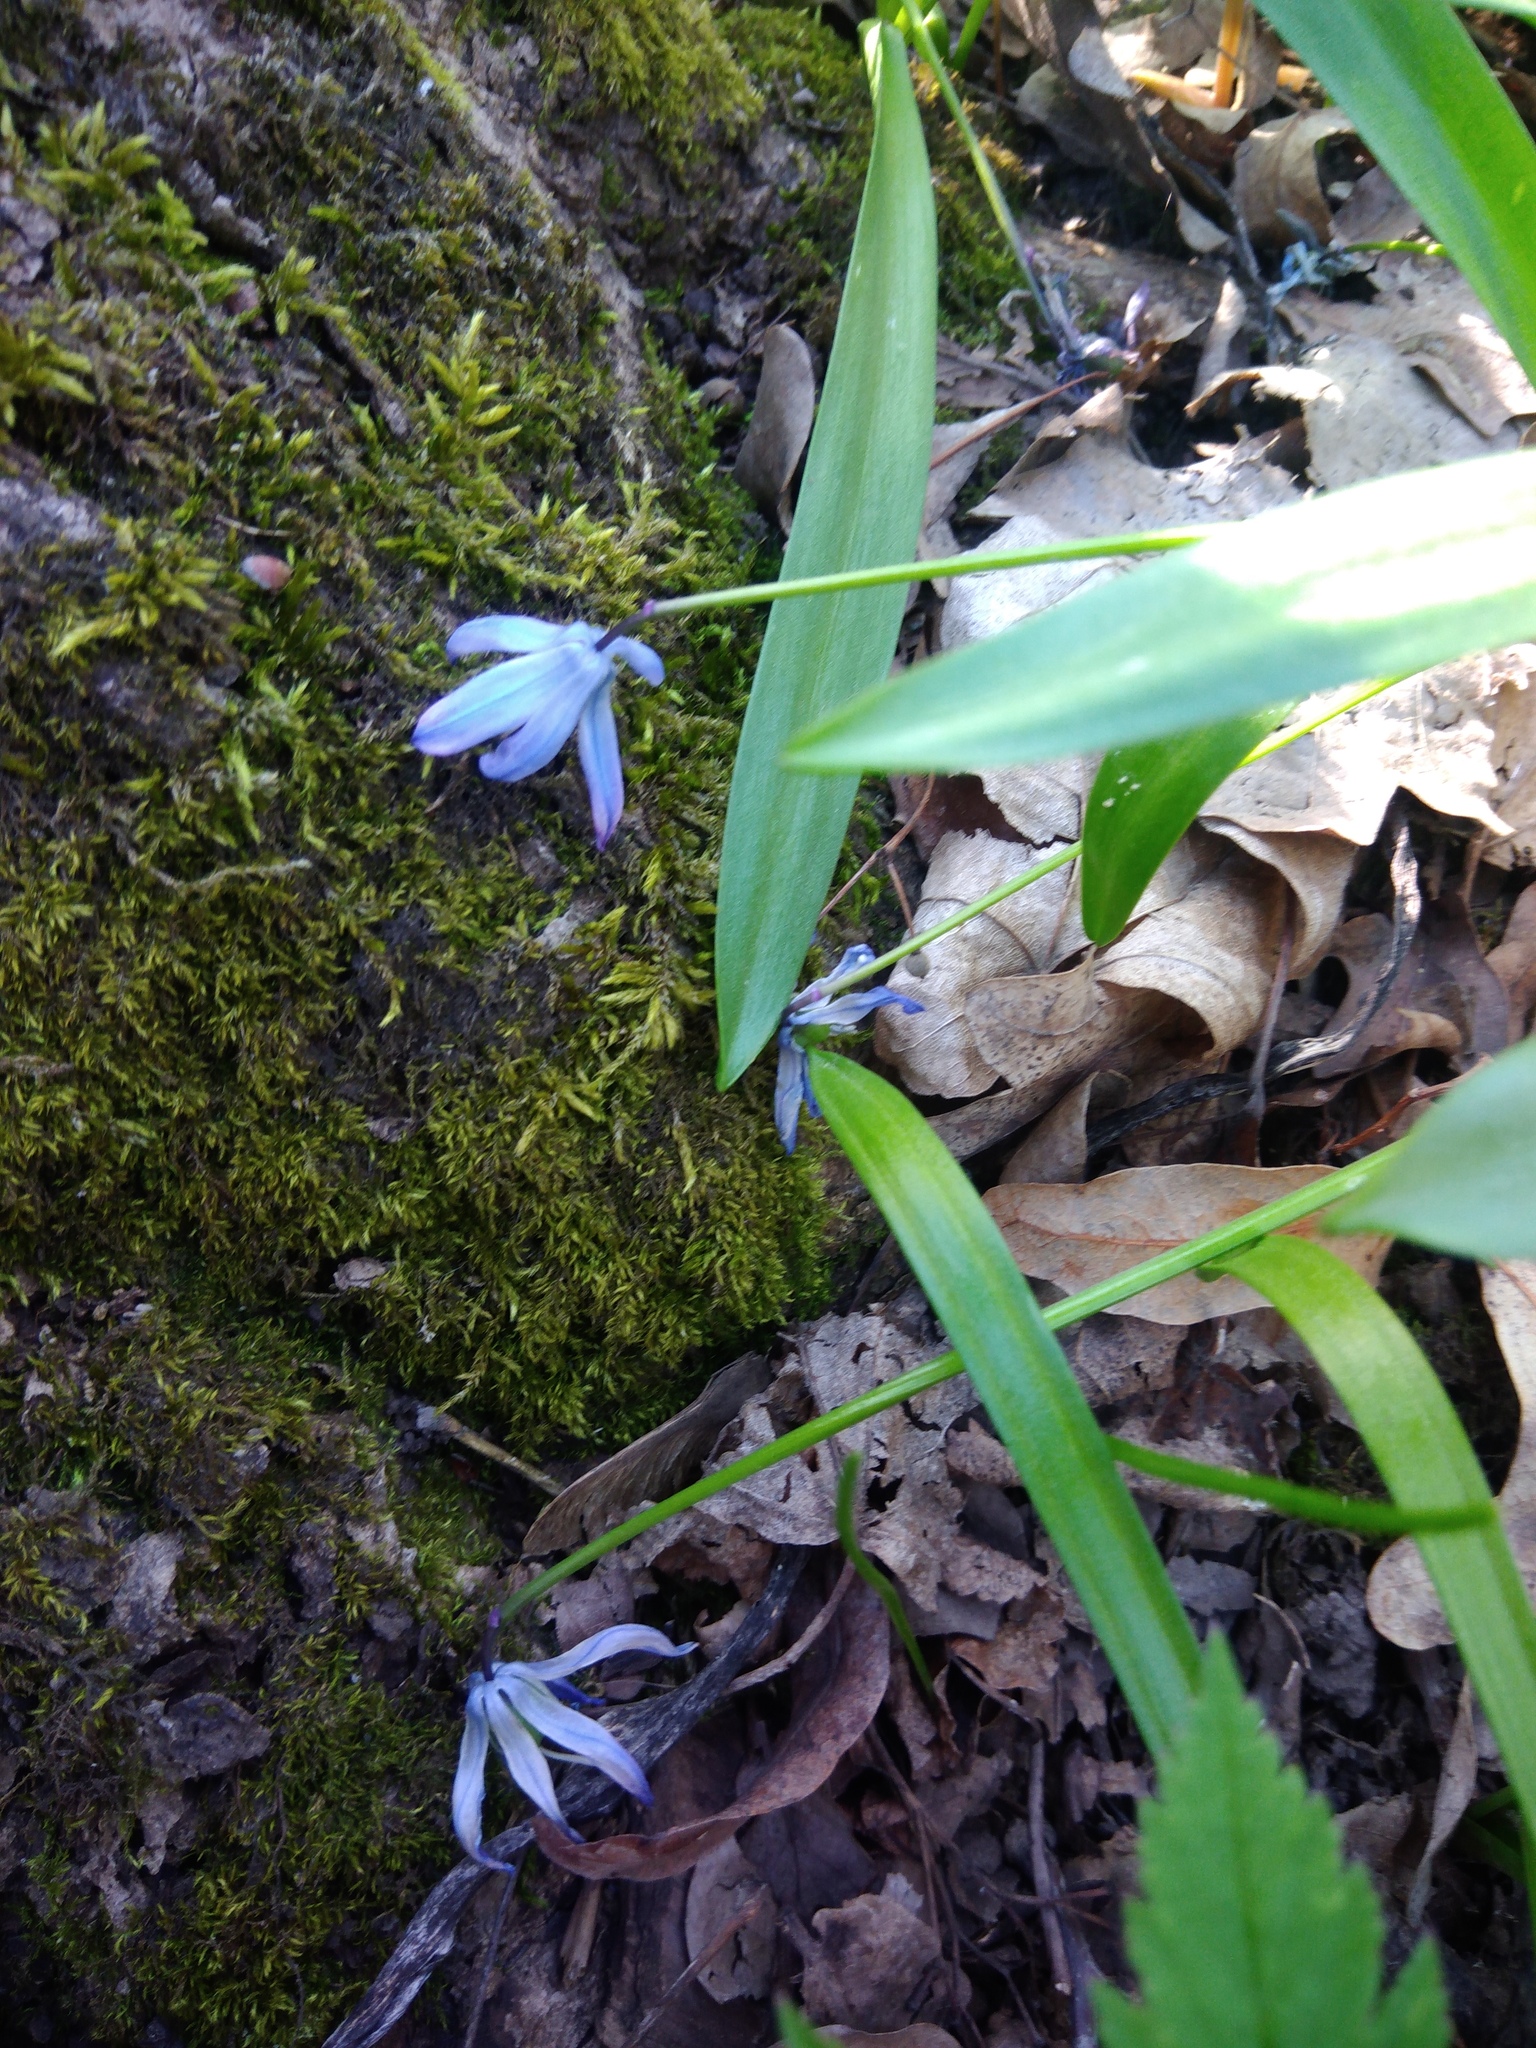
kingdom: Plantae
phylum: Tracheophyta
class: Liliopsida
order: Asparagales
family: Asparagaceae
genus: Scilla
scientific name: Scilla siberica
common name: Siberian squill
